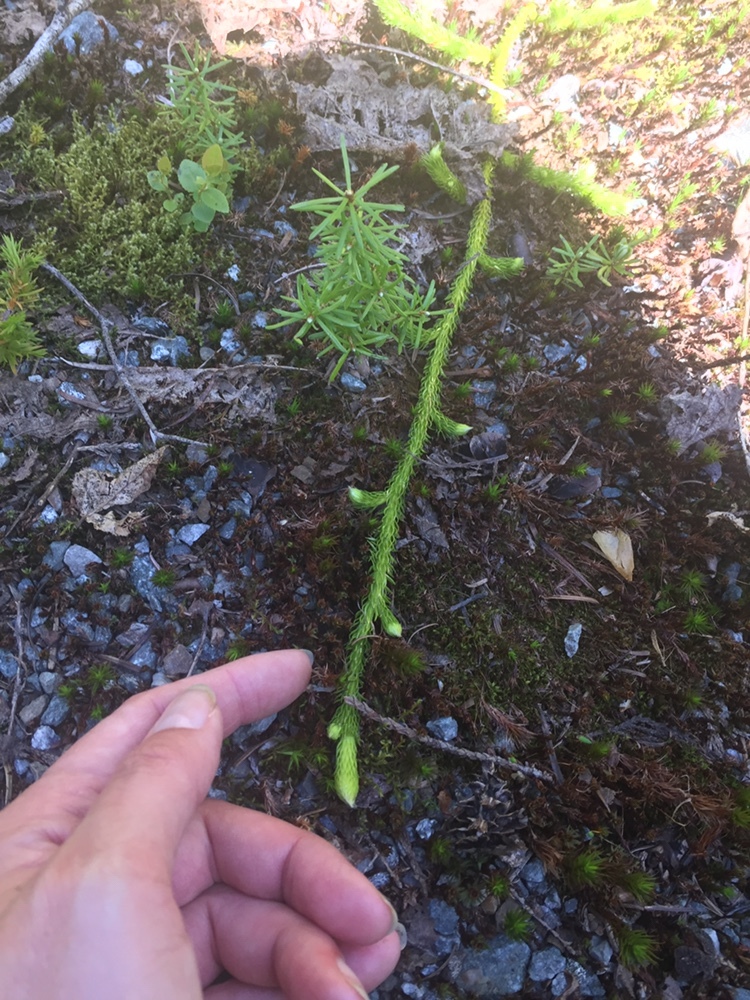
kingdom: Plantae
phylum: Tracheophyta
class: Lycopodiopsida
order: Lycopodiales
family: Lycopodiaceae
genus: Lycopodium
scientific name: Lycopodium clavatum
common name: Stag's-horn clubmoss
